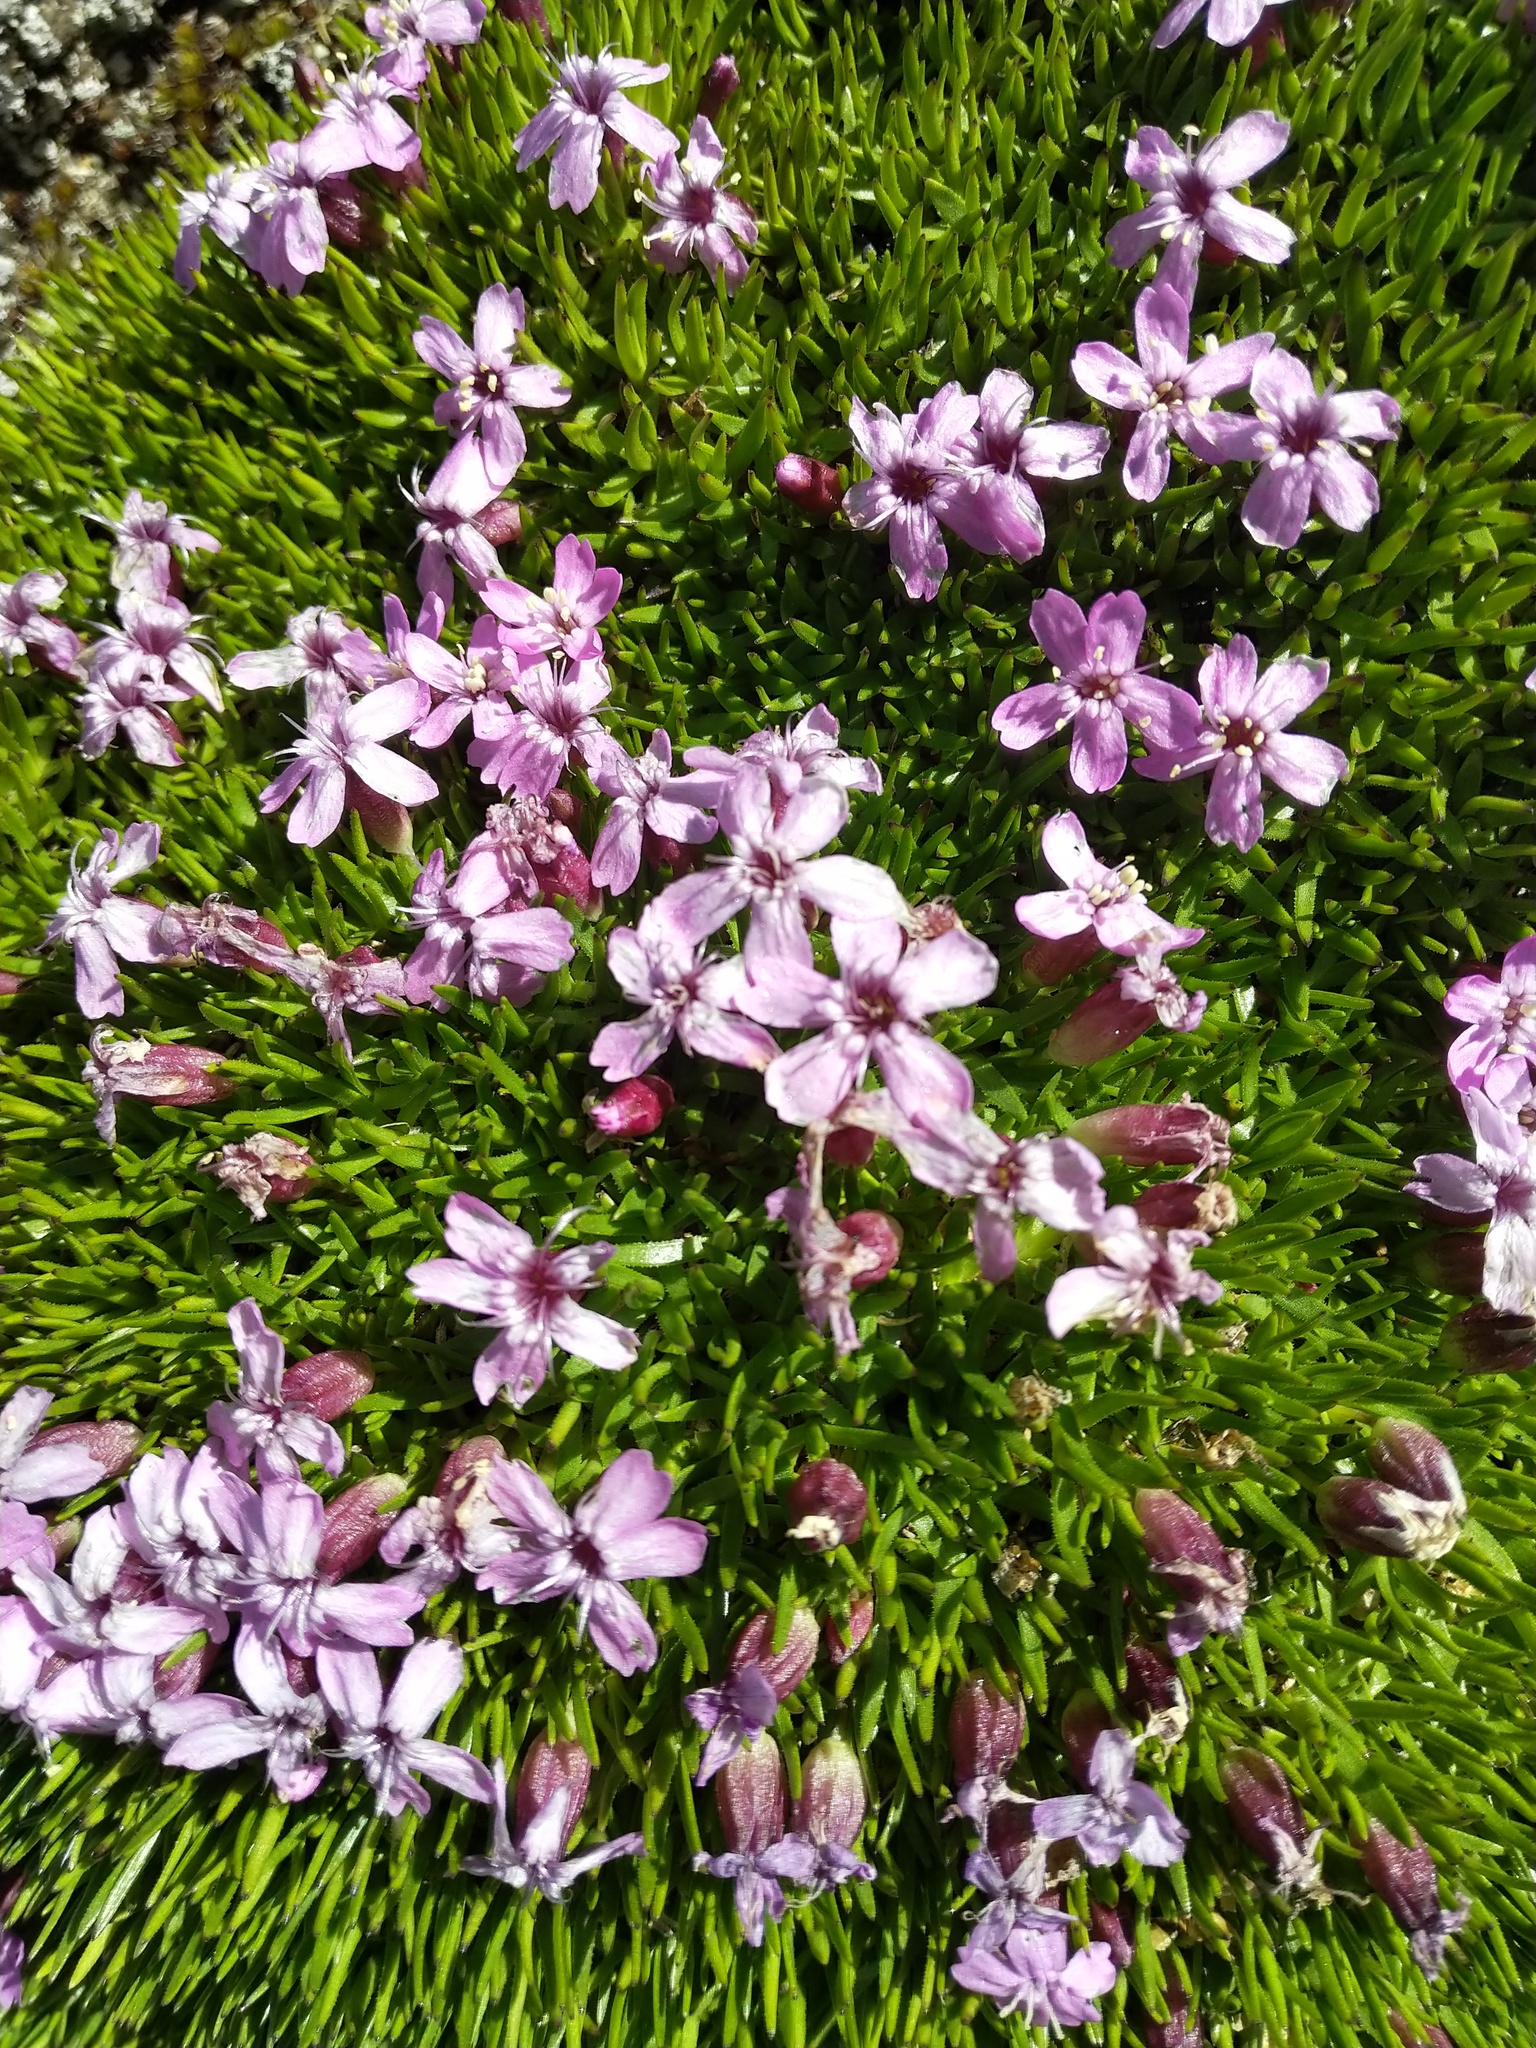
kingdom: Plantae
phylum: Tracheophyta
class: Magnoliopsida
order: Caryophyllales
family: Caryophyllaceae
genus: Silene
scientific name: Silene acaulis
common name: Moss campion
